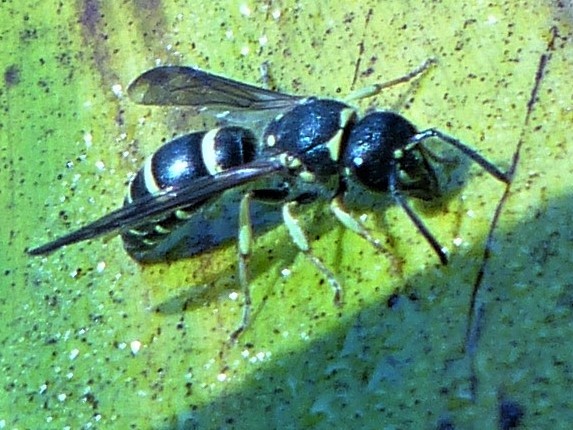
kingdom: Animalia
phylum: Arthropoda
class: Insecta
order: Hymenoptera
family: Vespidae
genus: Ancistrocerus
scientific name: Ancistrocerus adiabatus
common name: Bramble mason wasp
